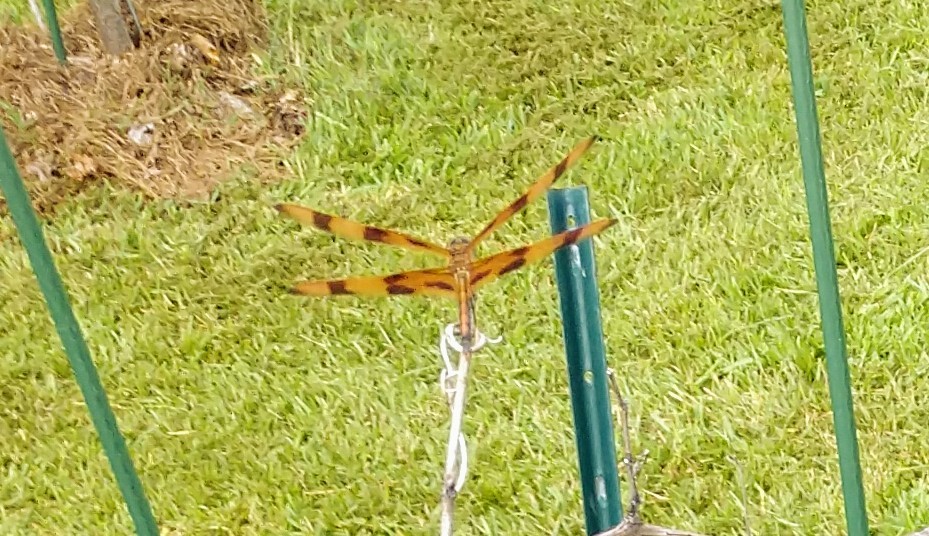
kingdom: Animalia
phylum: Arthropoda
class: Insecta
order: Odonata
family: Libellulidae
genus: Celithemis
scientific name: Celithemis eponina
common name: Halloween pennant
